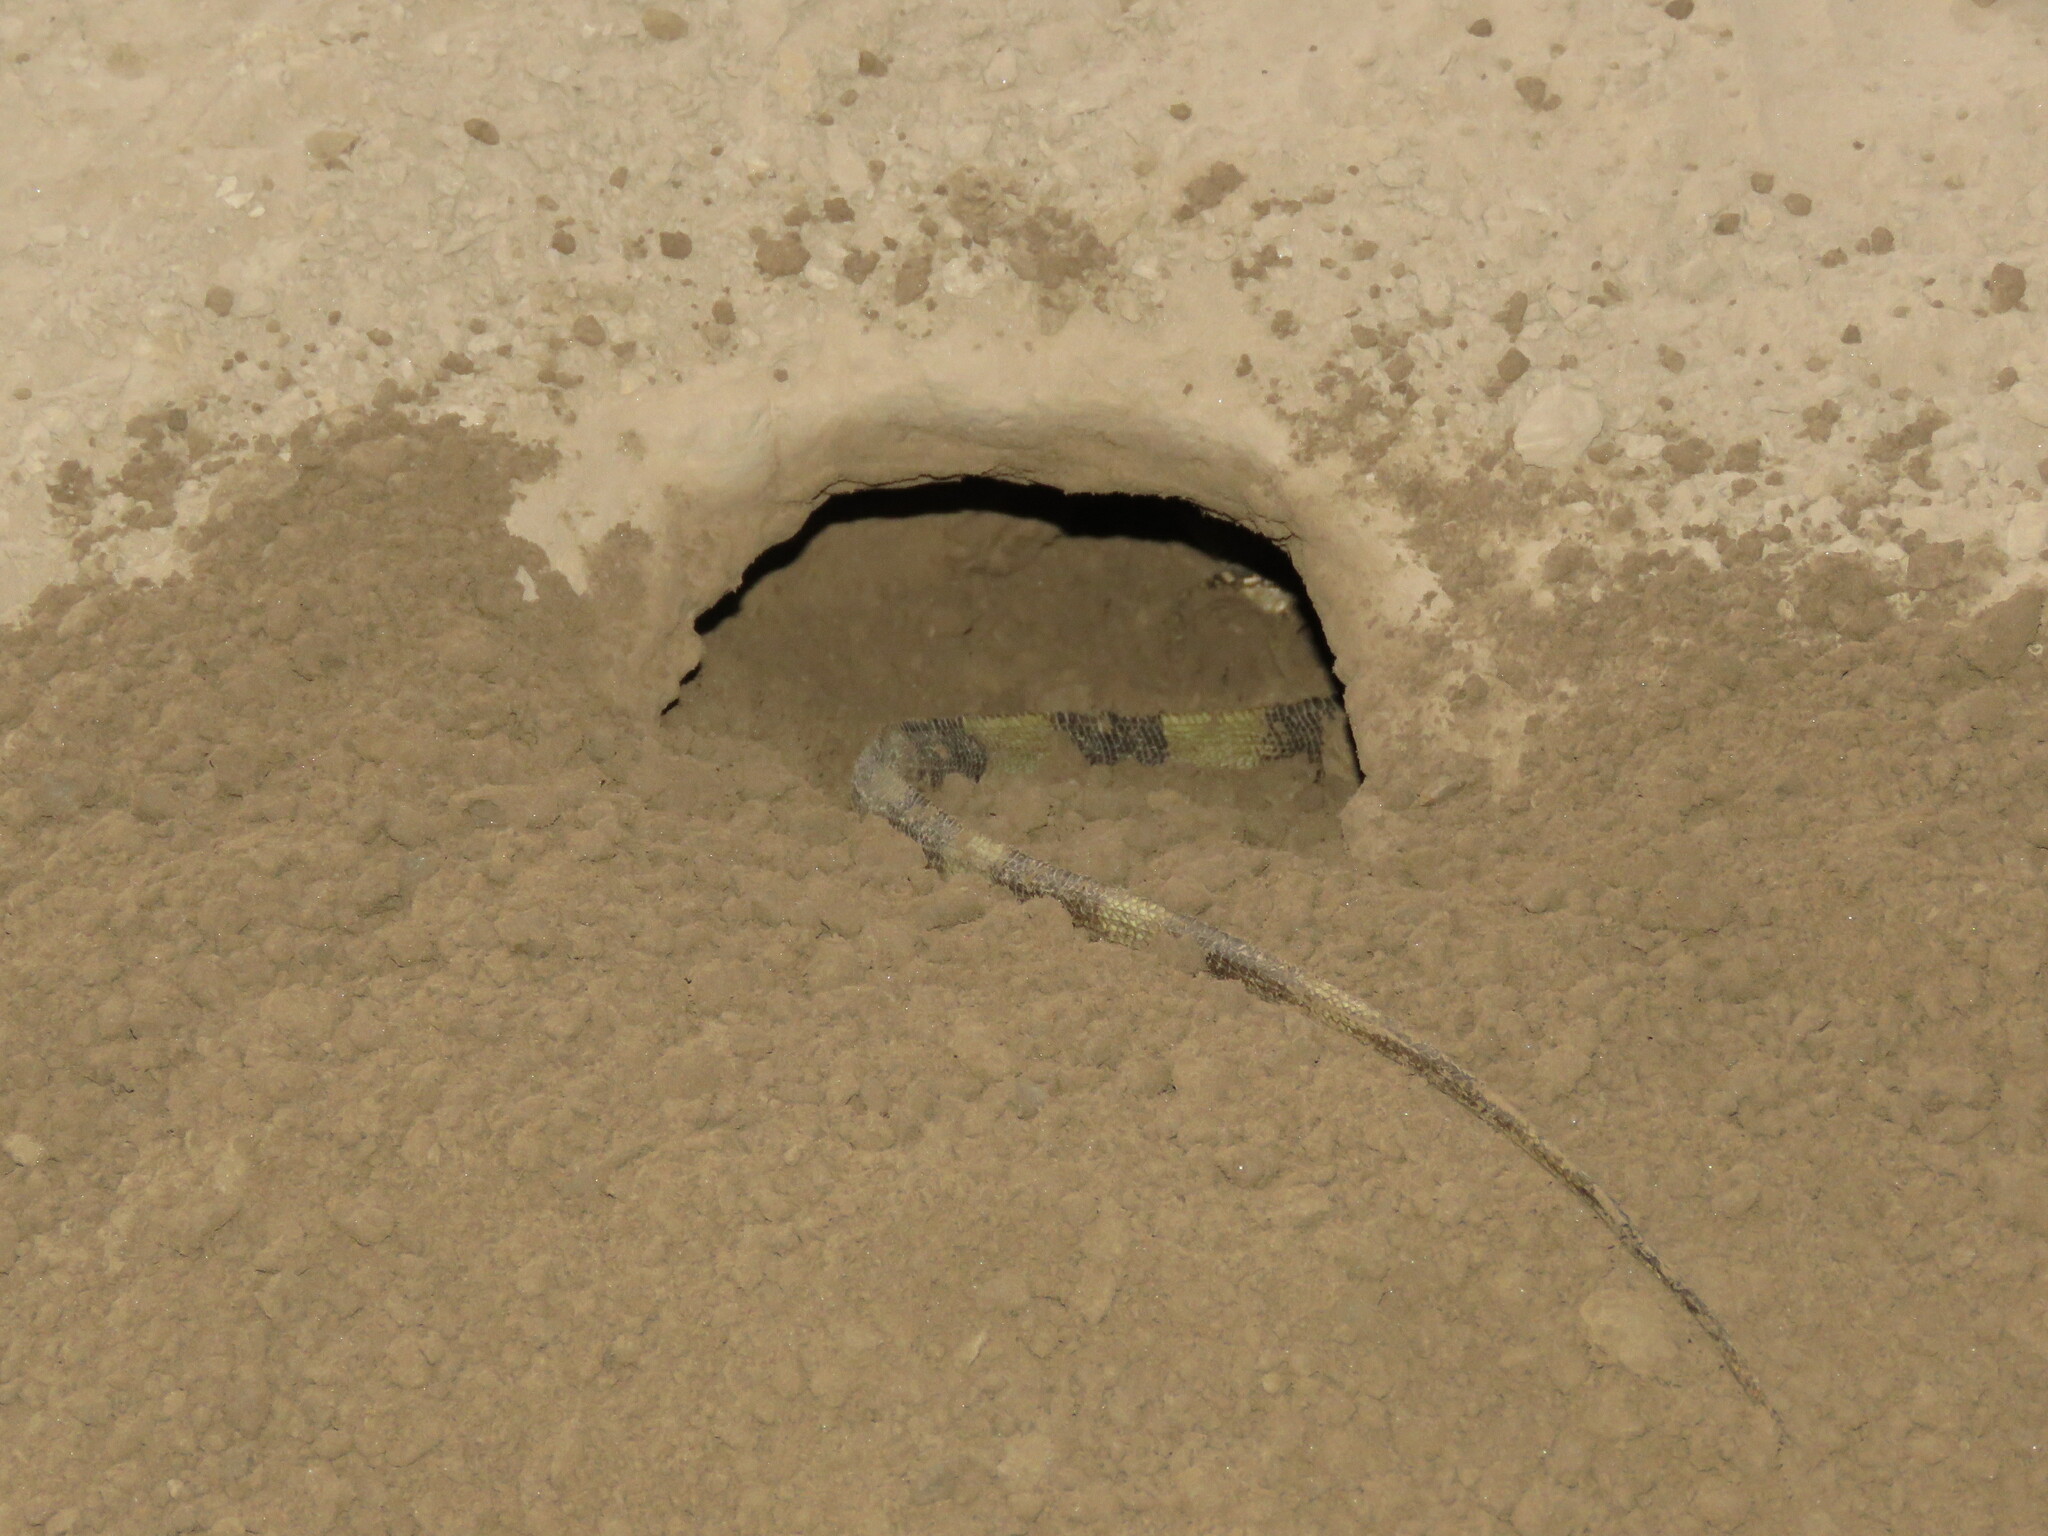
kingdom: Animalia
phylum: Chordata
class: Squamata
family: Iguanidae
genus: Iguana
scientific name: Iguana iguana
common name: Green iguana
